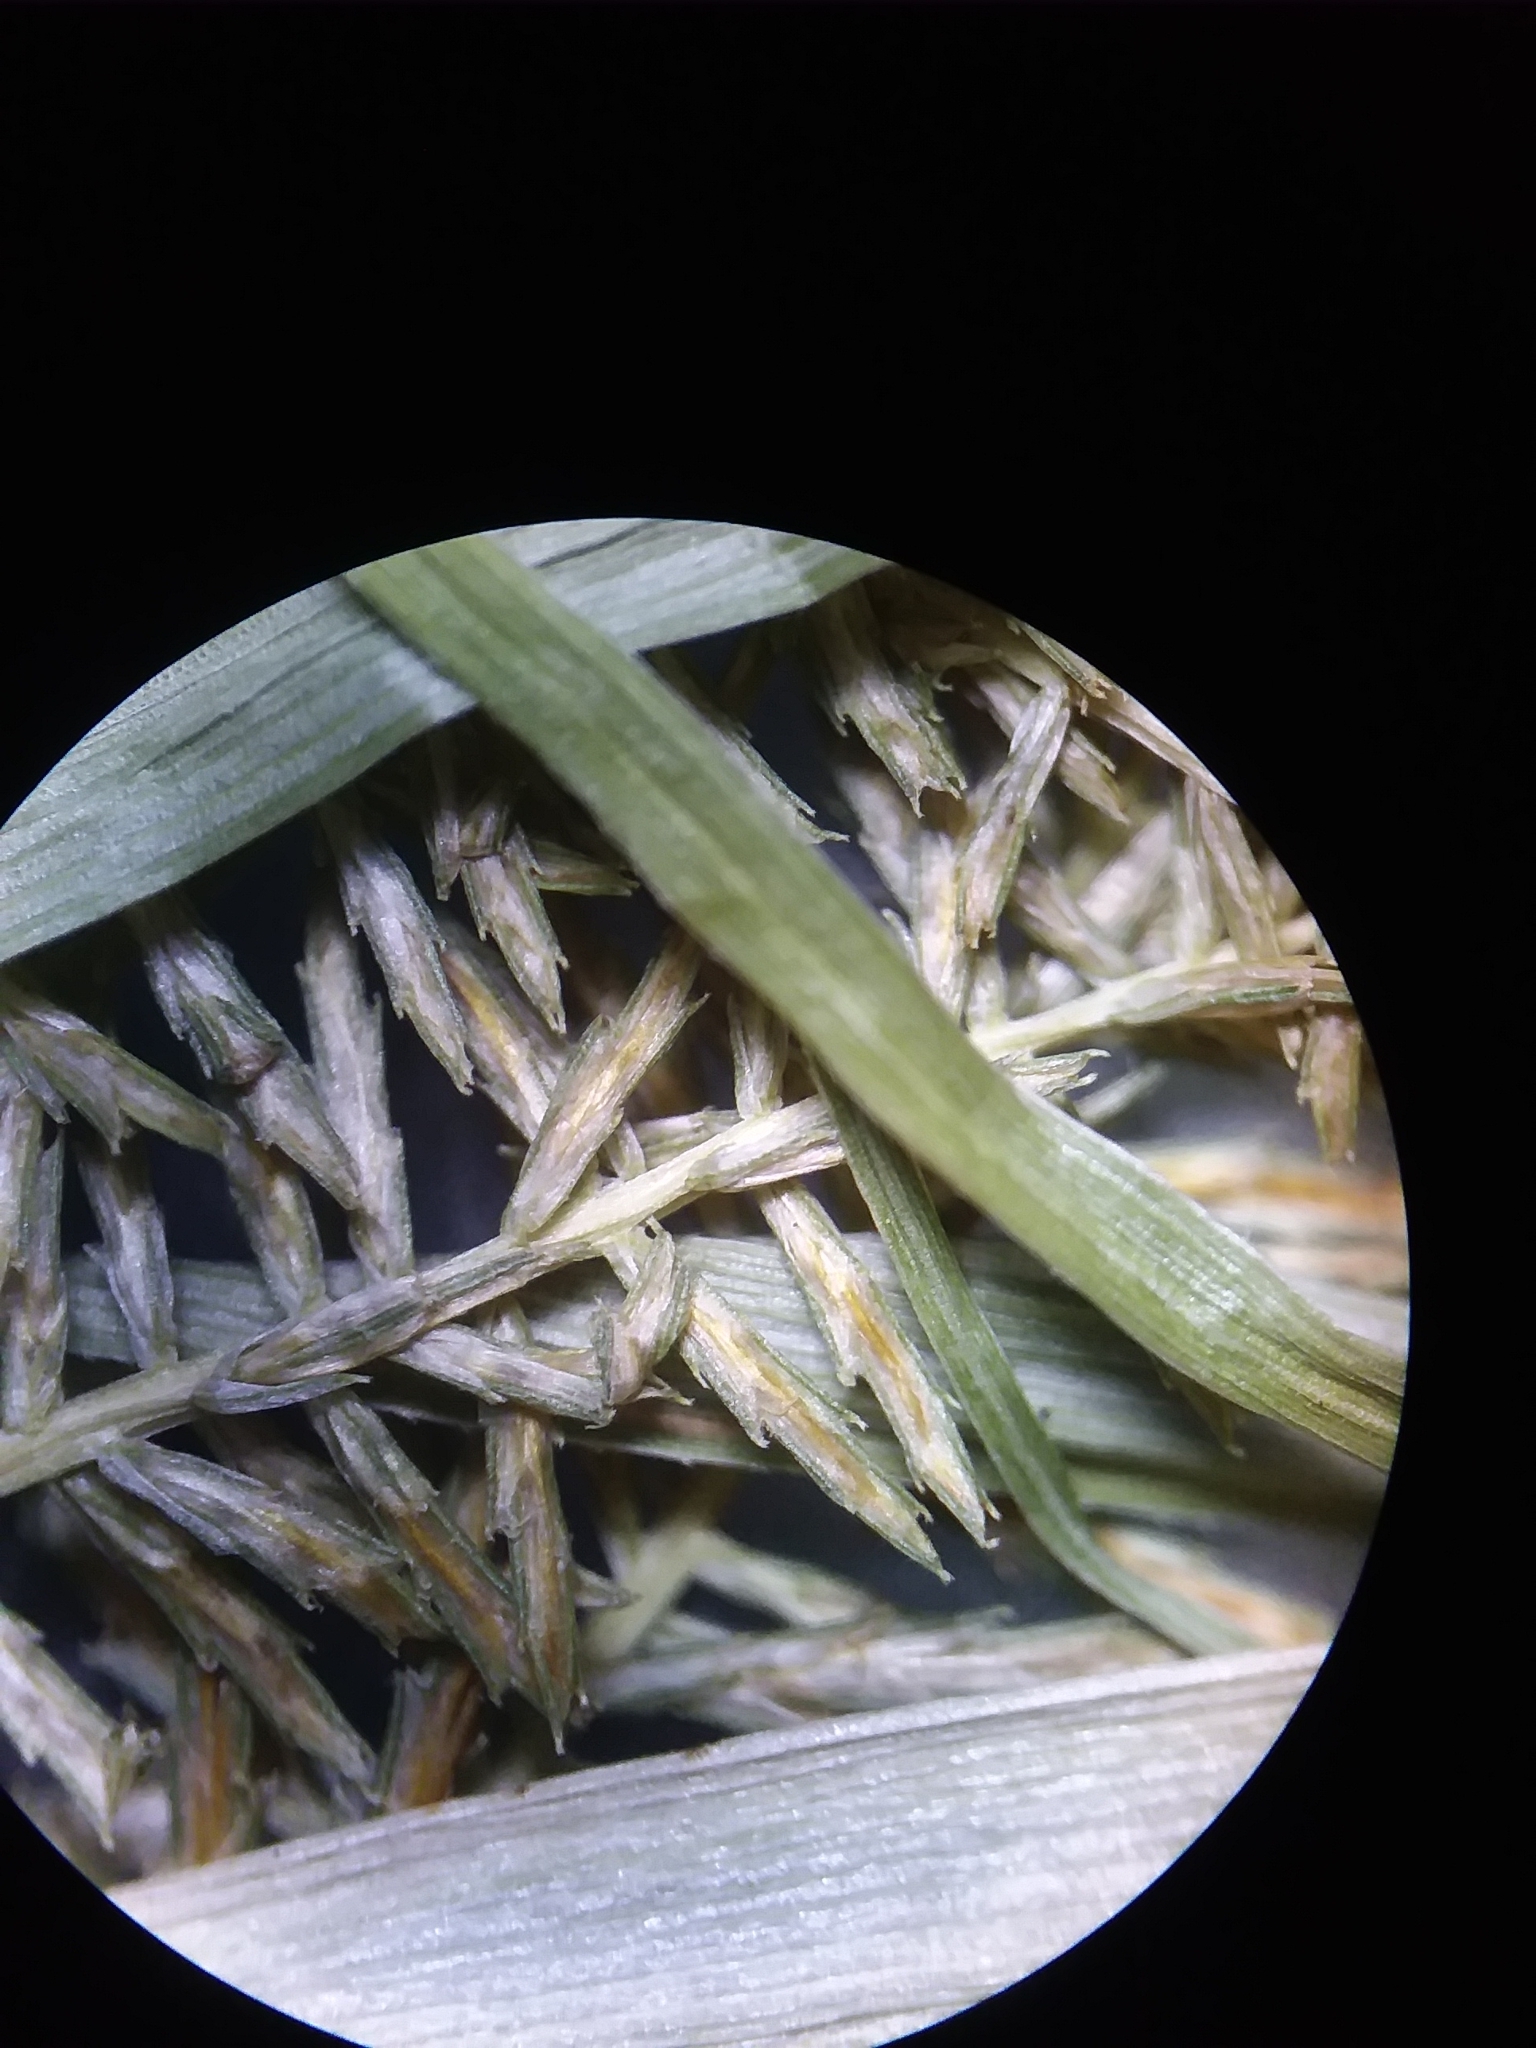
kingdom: Plantae
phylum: Tracheophyta
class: Liliopsida
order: Poales
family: Cyperaceae
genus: Cyperus
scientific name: Cyperus erythrorhizos
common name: Red-root flat sedge
